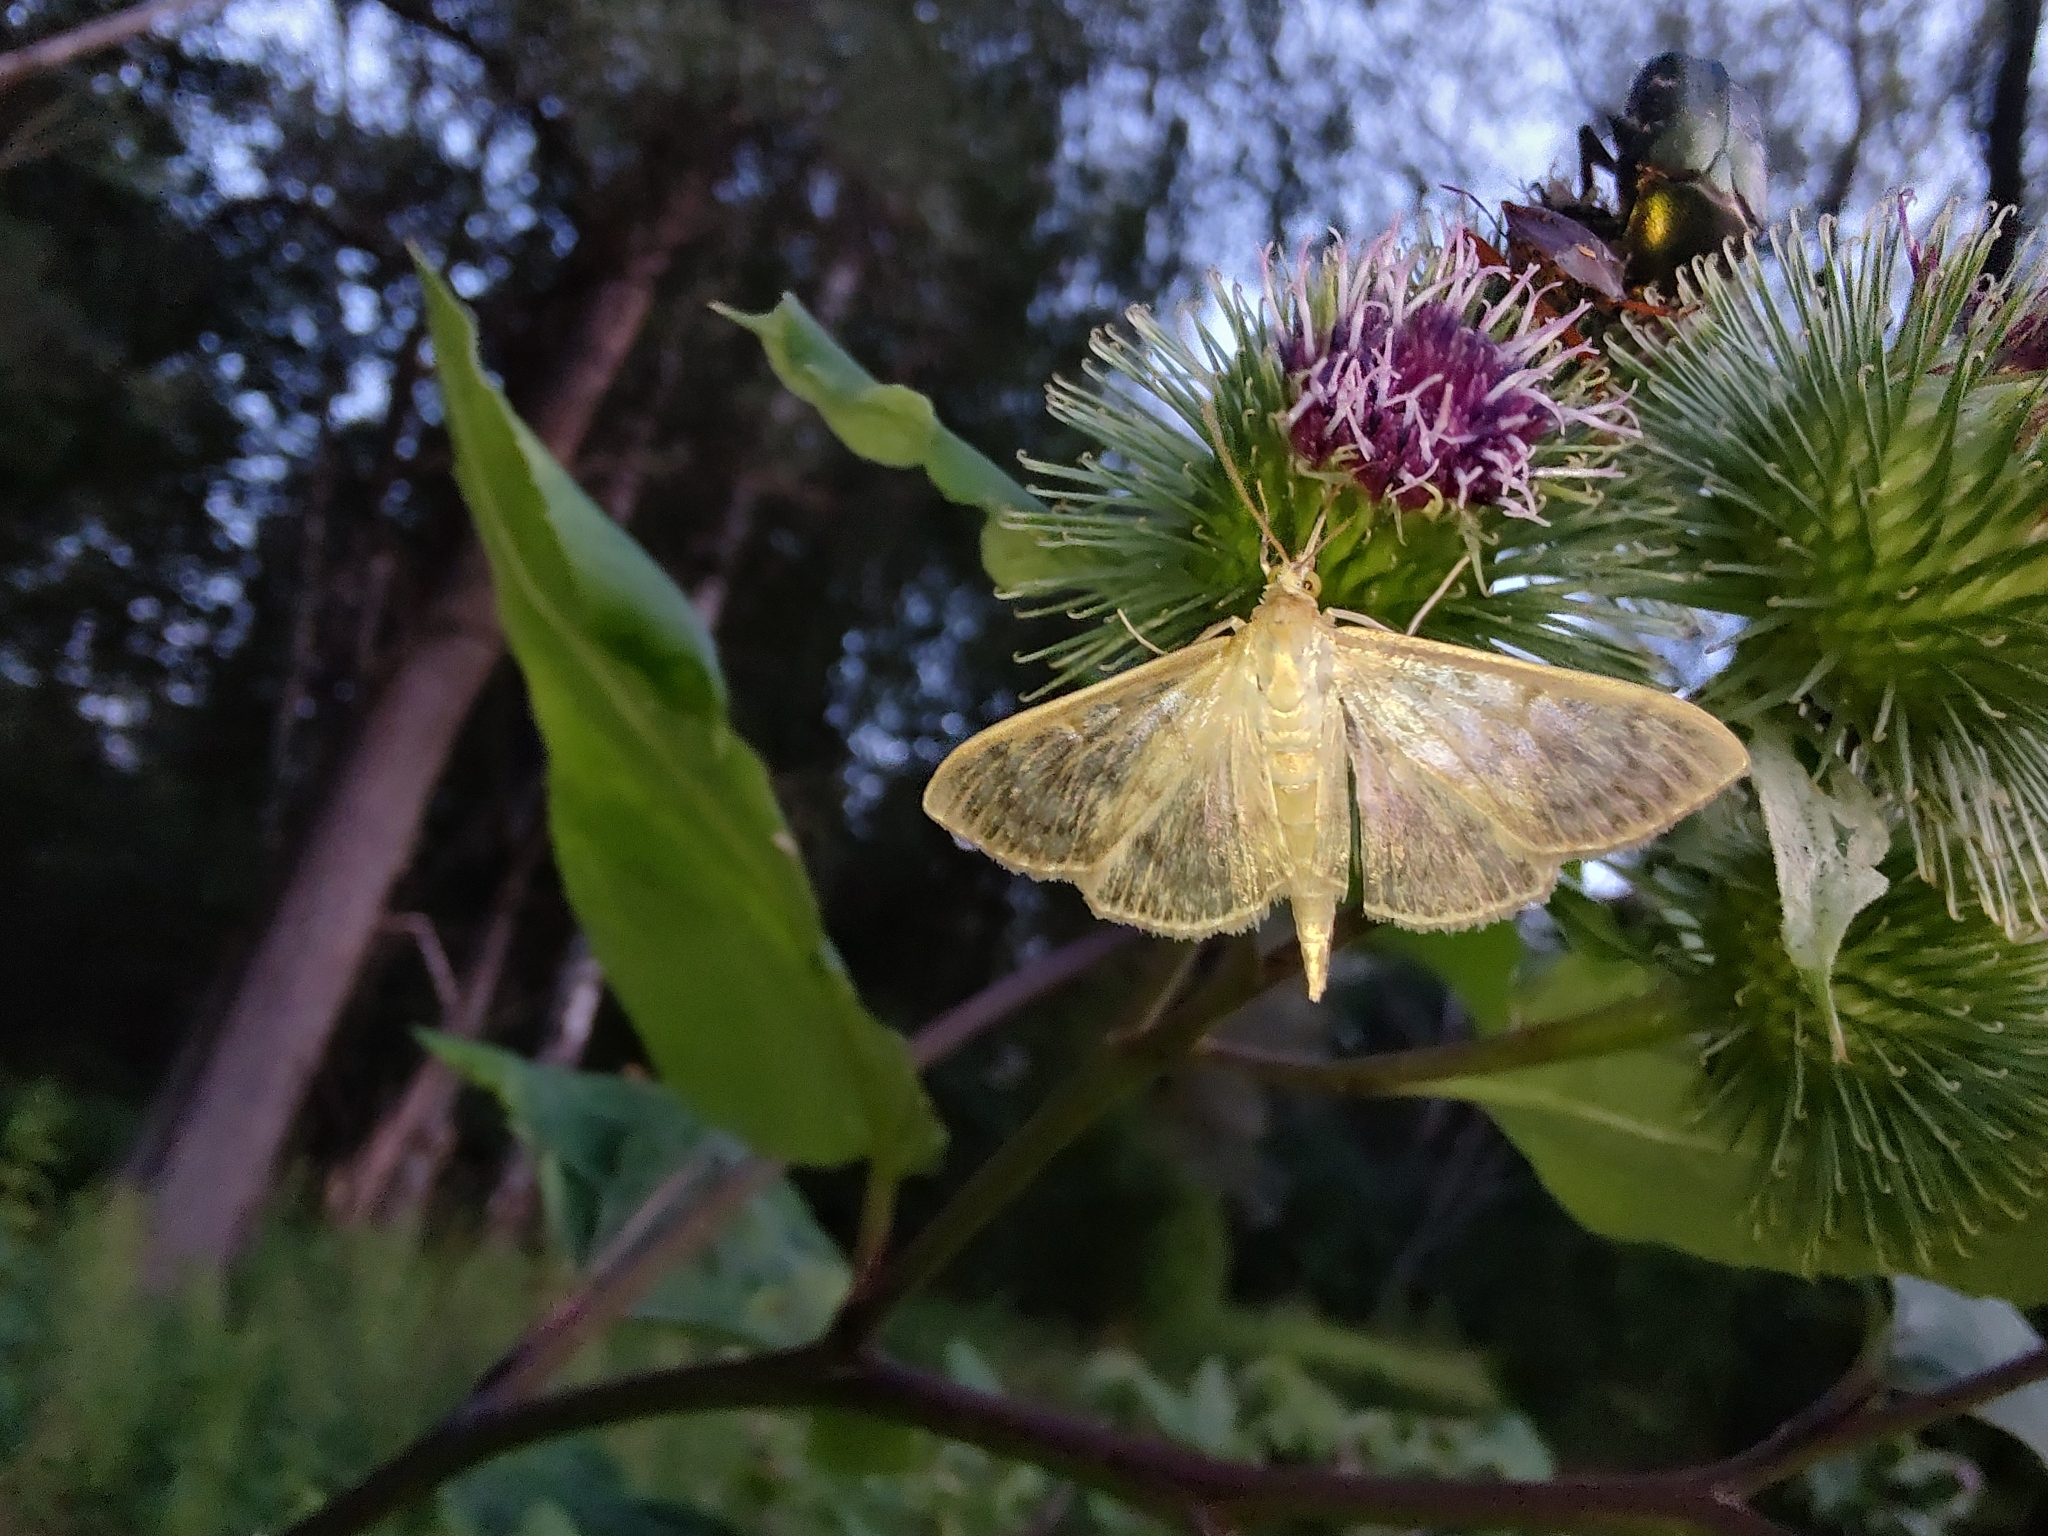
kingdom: Animalia
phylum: Arthropoda
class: Insecta
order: Lepidoptera
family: Crambidae
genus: Patania
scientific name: Patania ruralis
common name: Mother of pearl
